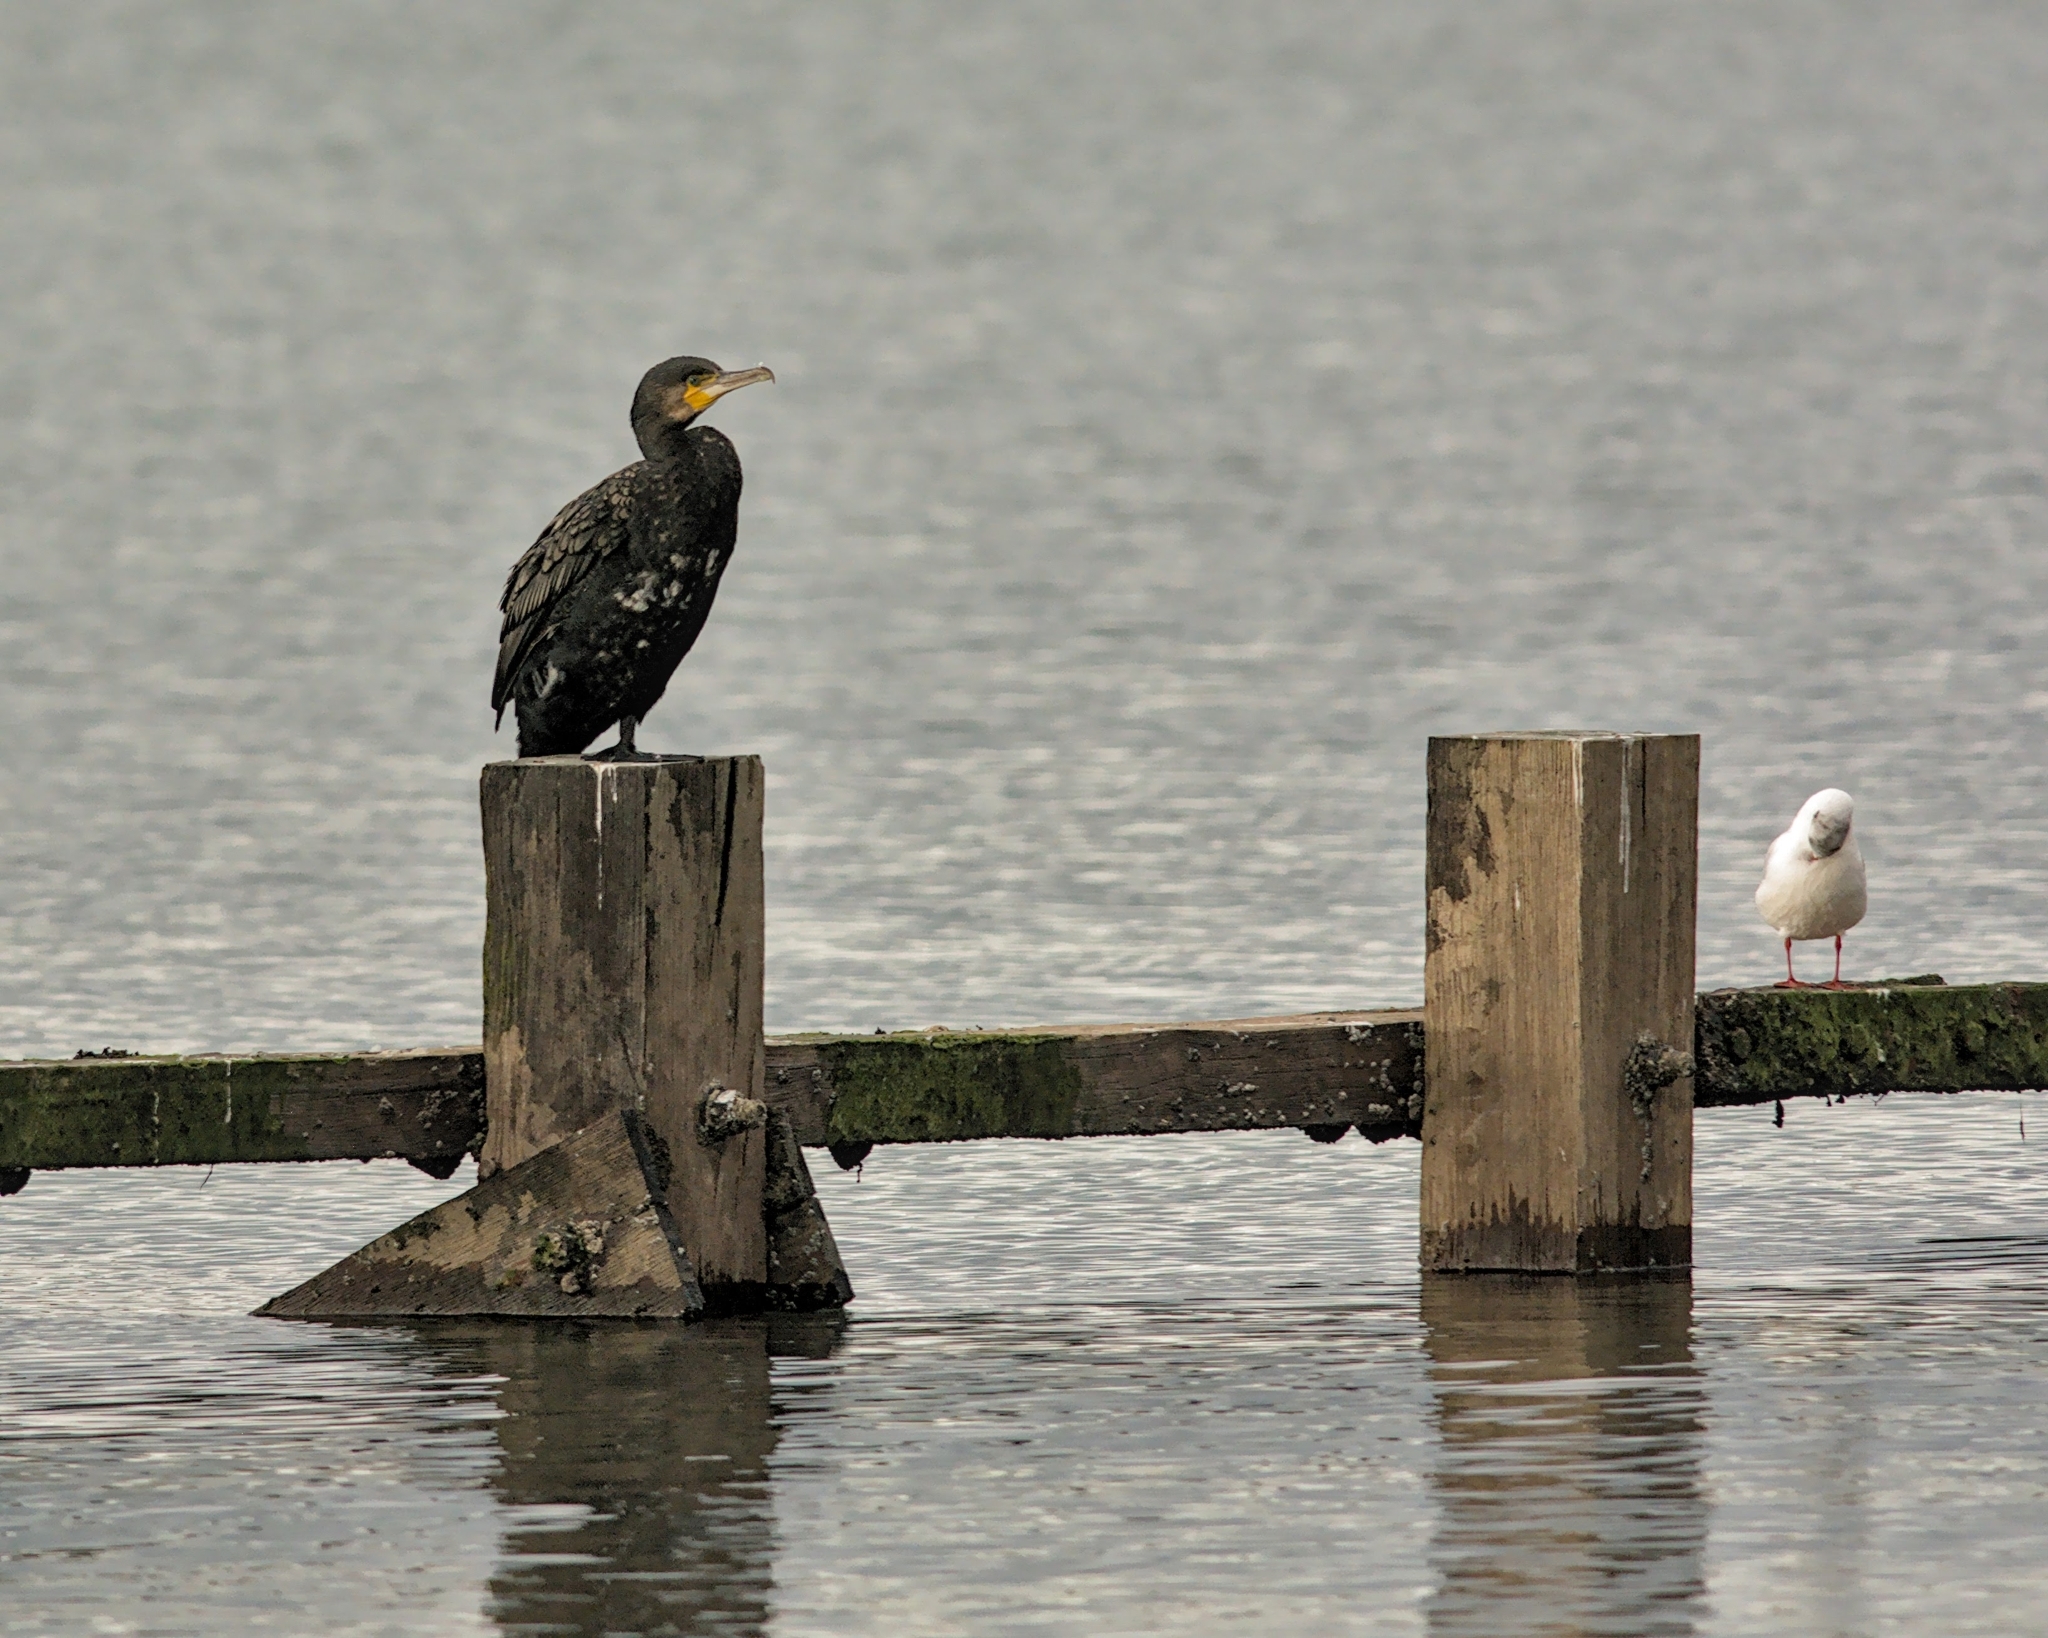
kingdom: Animalia
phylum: Chordata
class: Aves
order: Suliformes
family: Phalacrocoracidae
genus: Phalacrocorax
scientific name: Phalacrocorax carbo
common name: Great cormorant
